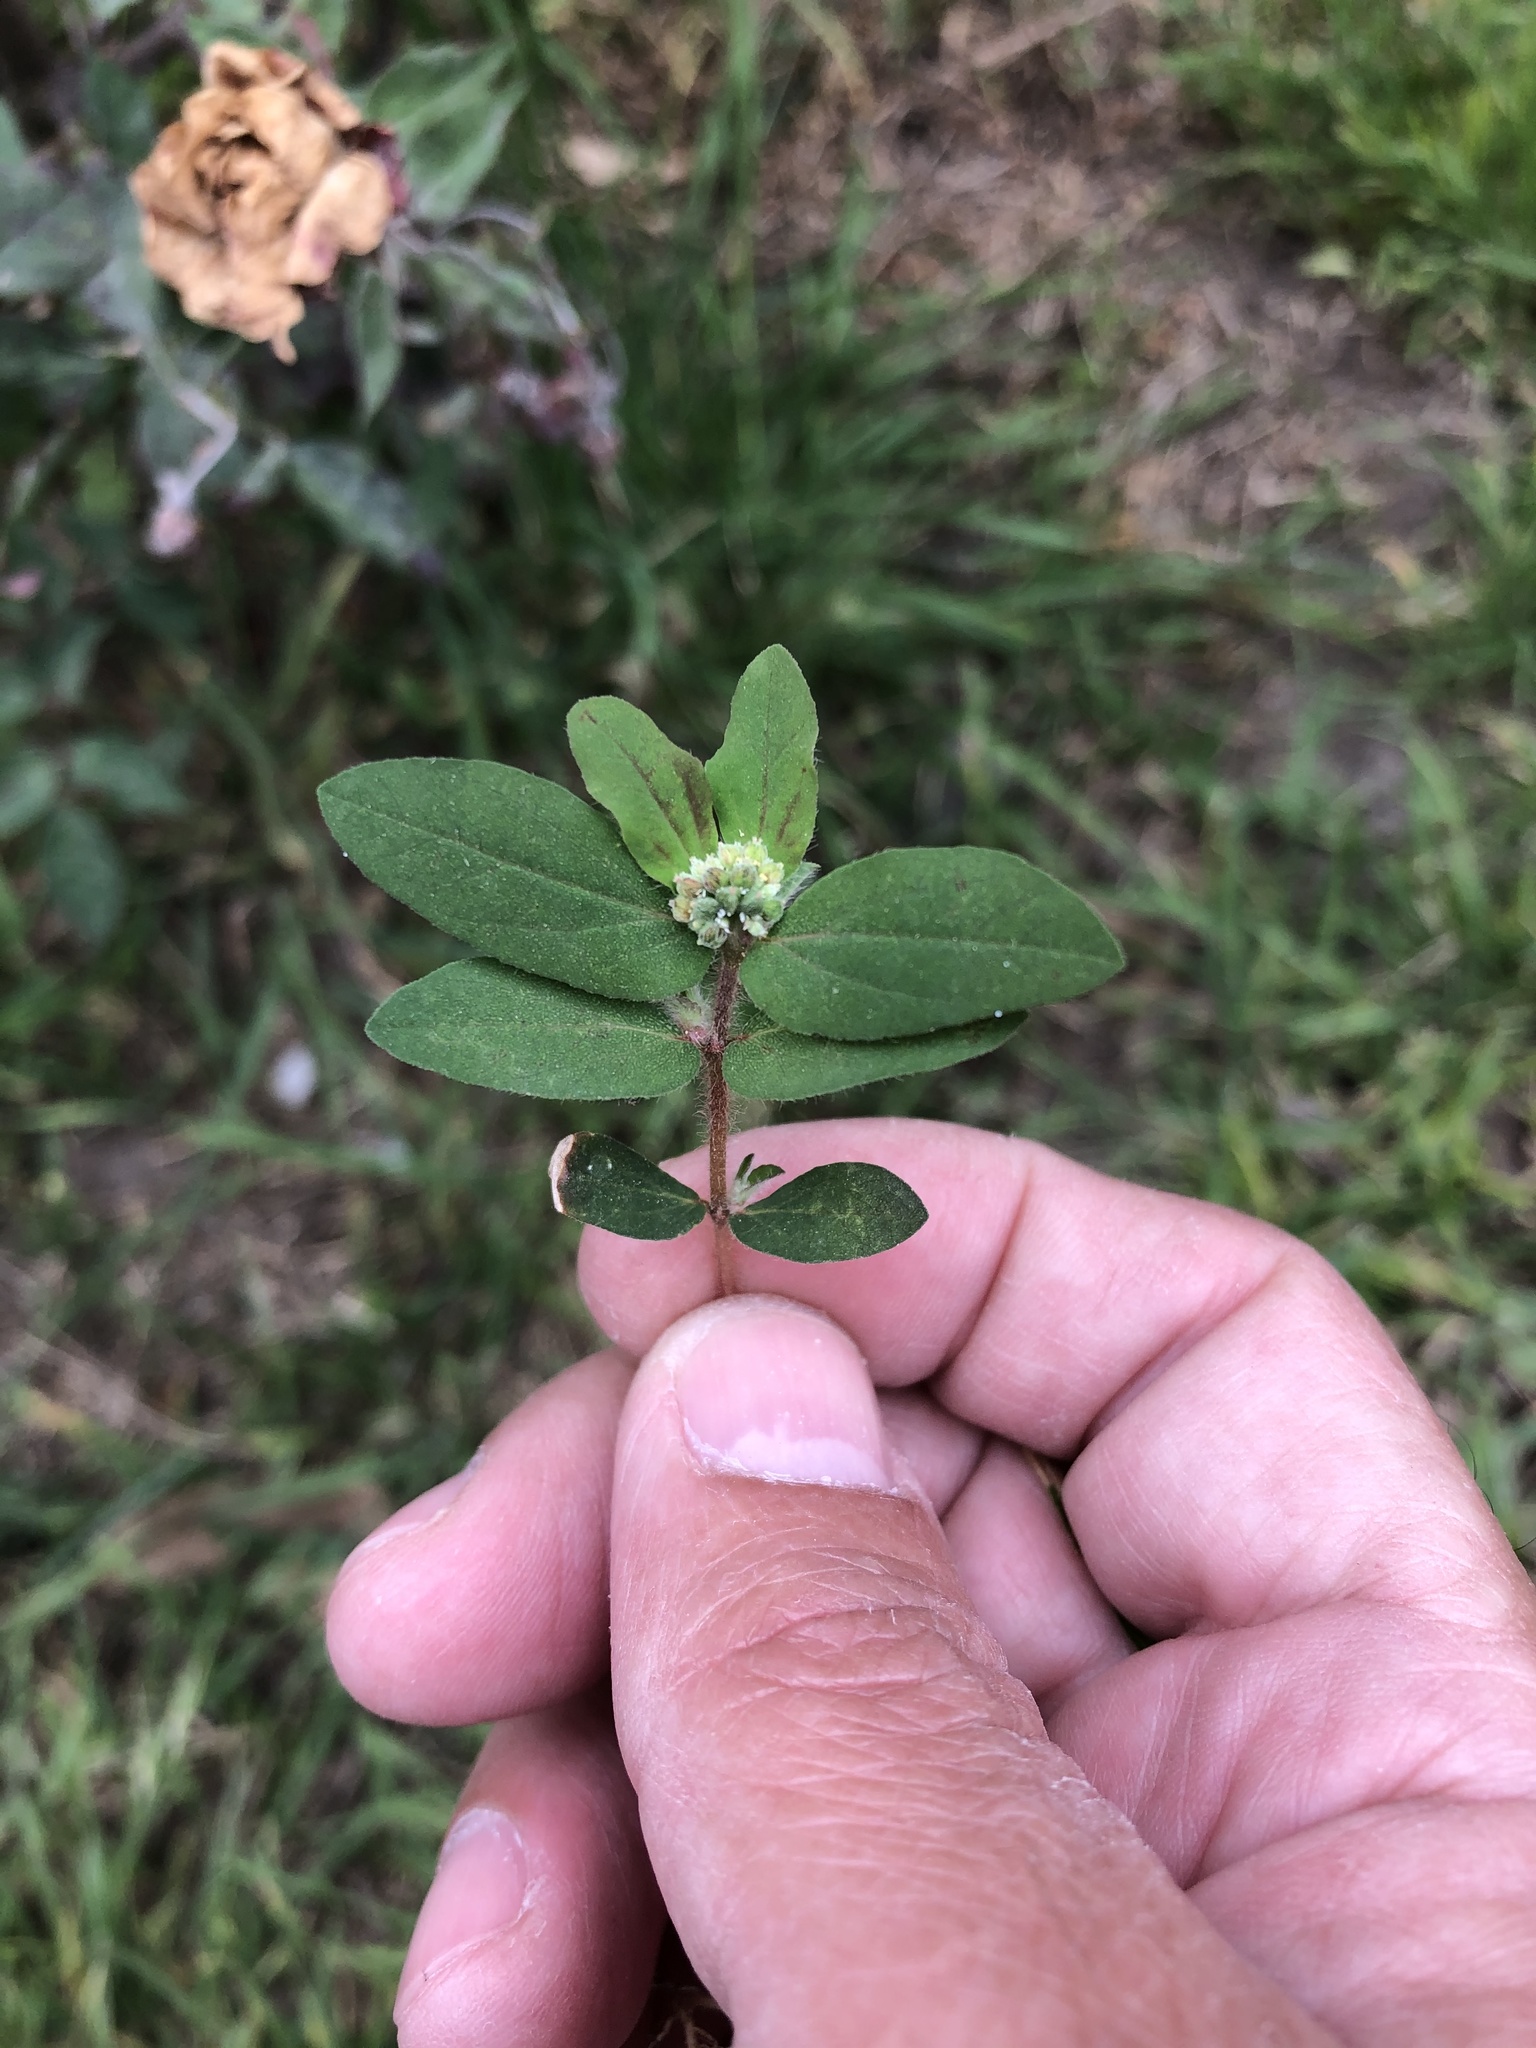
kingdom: Plantae
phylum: Tracheophyta
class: Magnoliopsida
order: Malpighiales
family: Euphorbiaceae
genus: Euphorbia
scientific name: Euphorbia ophthalmica
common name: Florida hammock sandmat
